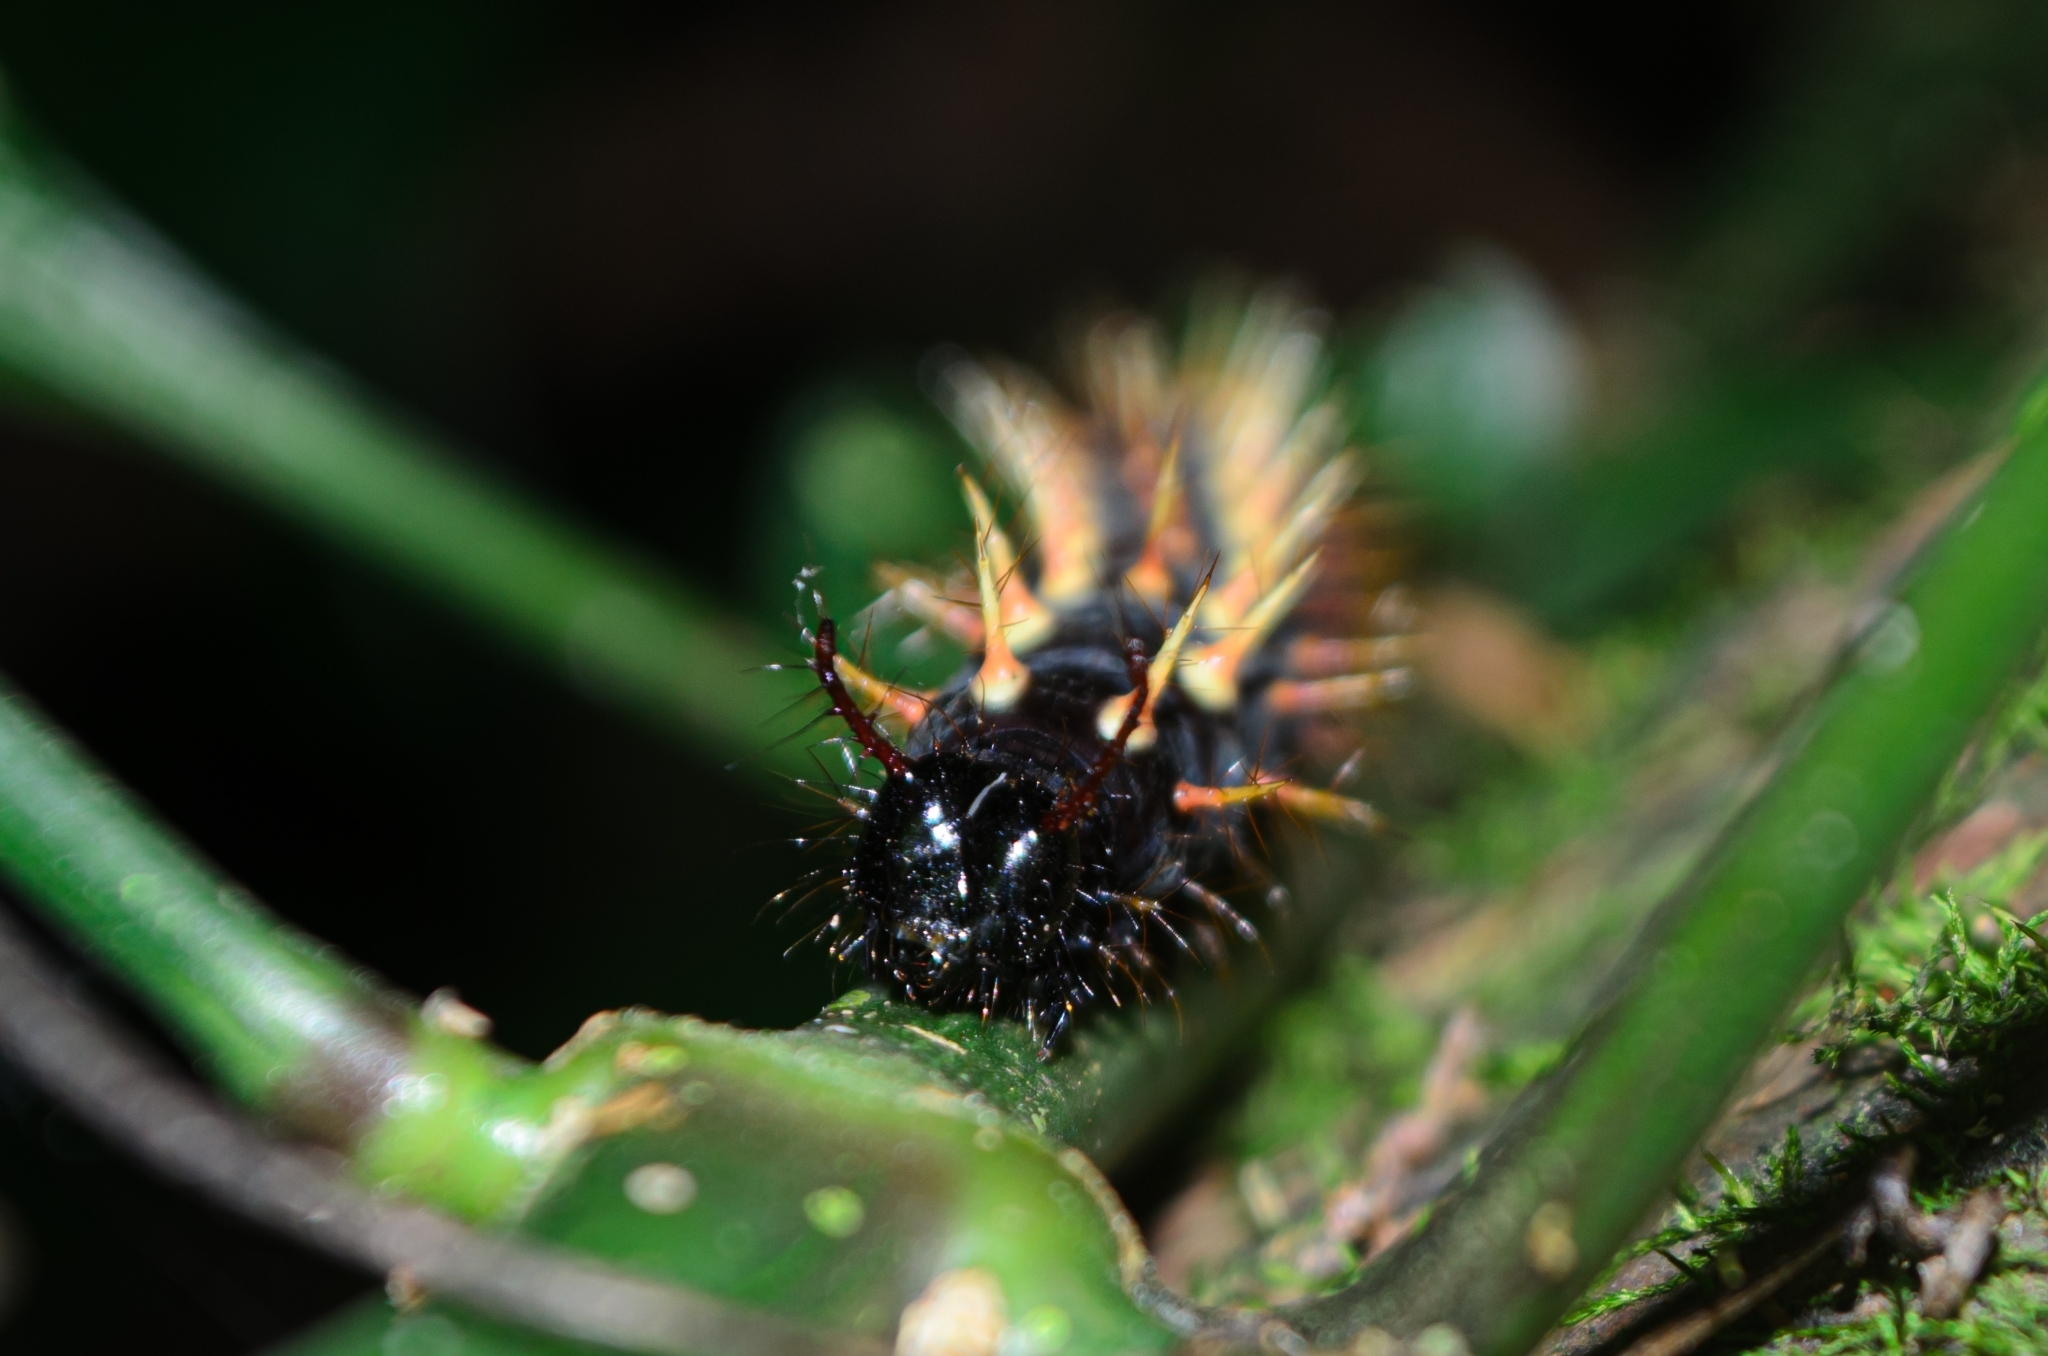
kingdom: Animalia
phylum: Arthropoda
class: Insecta
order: Lepidoptera
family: Nymphalidae
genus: Siproeta
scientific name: Siproeta epaphus
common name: Rusty-tipped page
